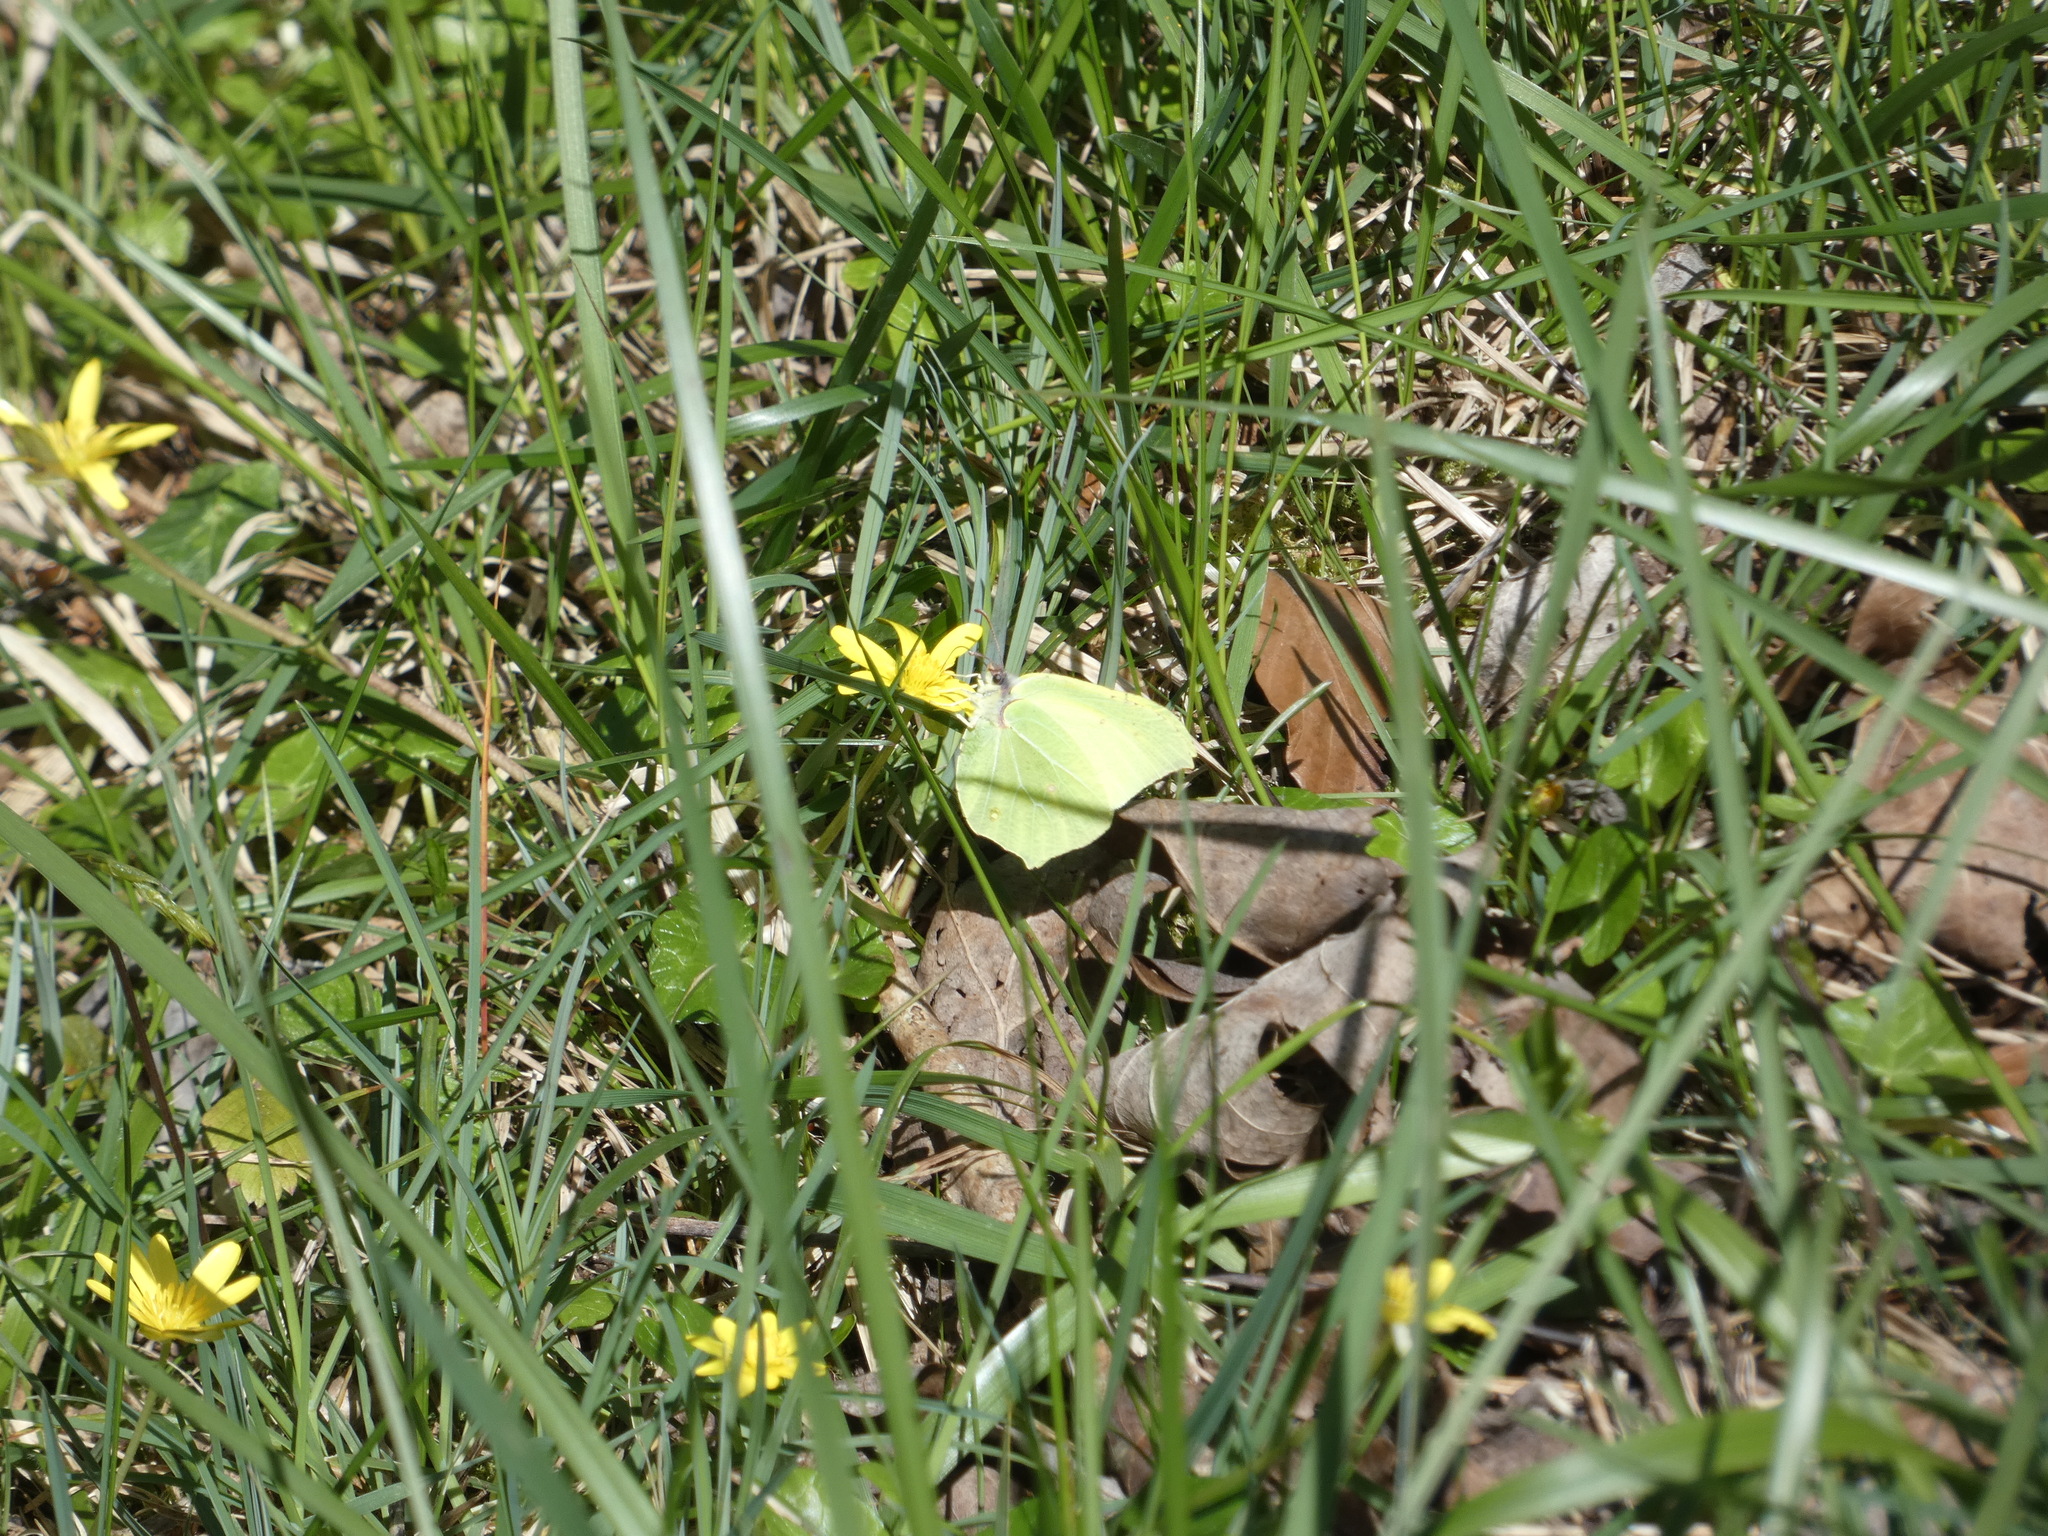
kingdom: Animalia
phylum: Arthropoda
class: Insecta
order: Lepidoptera
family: Pieridae
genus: Gonepteryx
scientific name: Gonepteryx rhamni
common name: Brimstone
